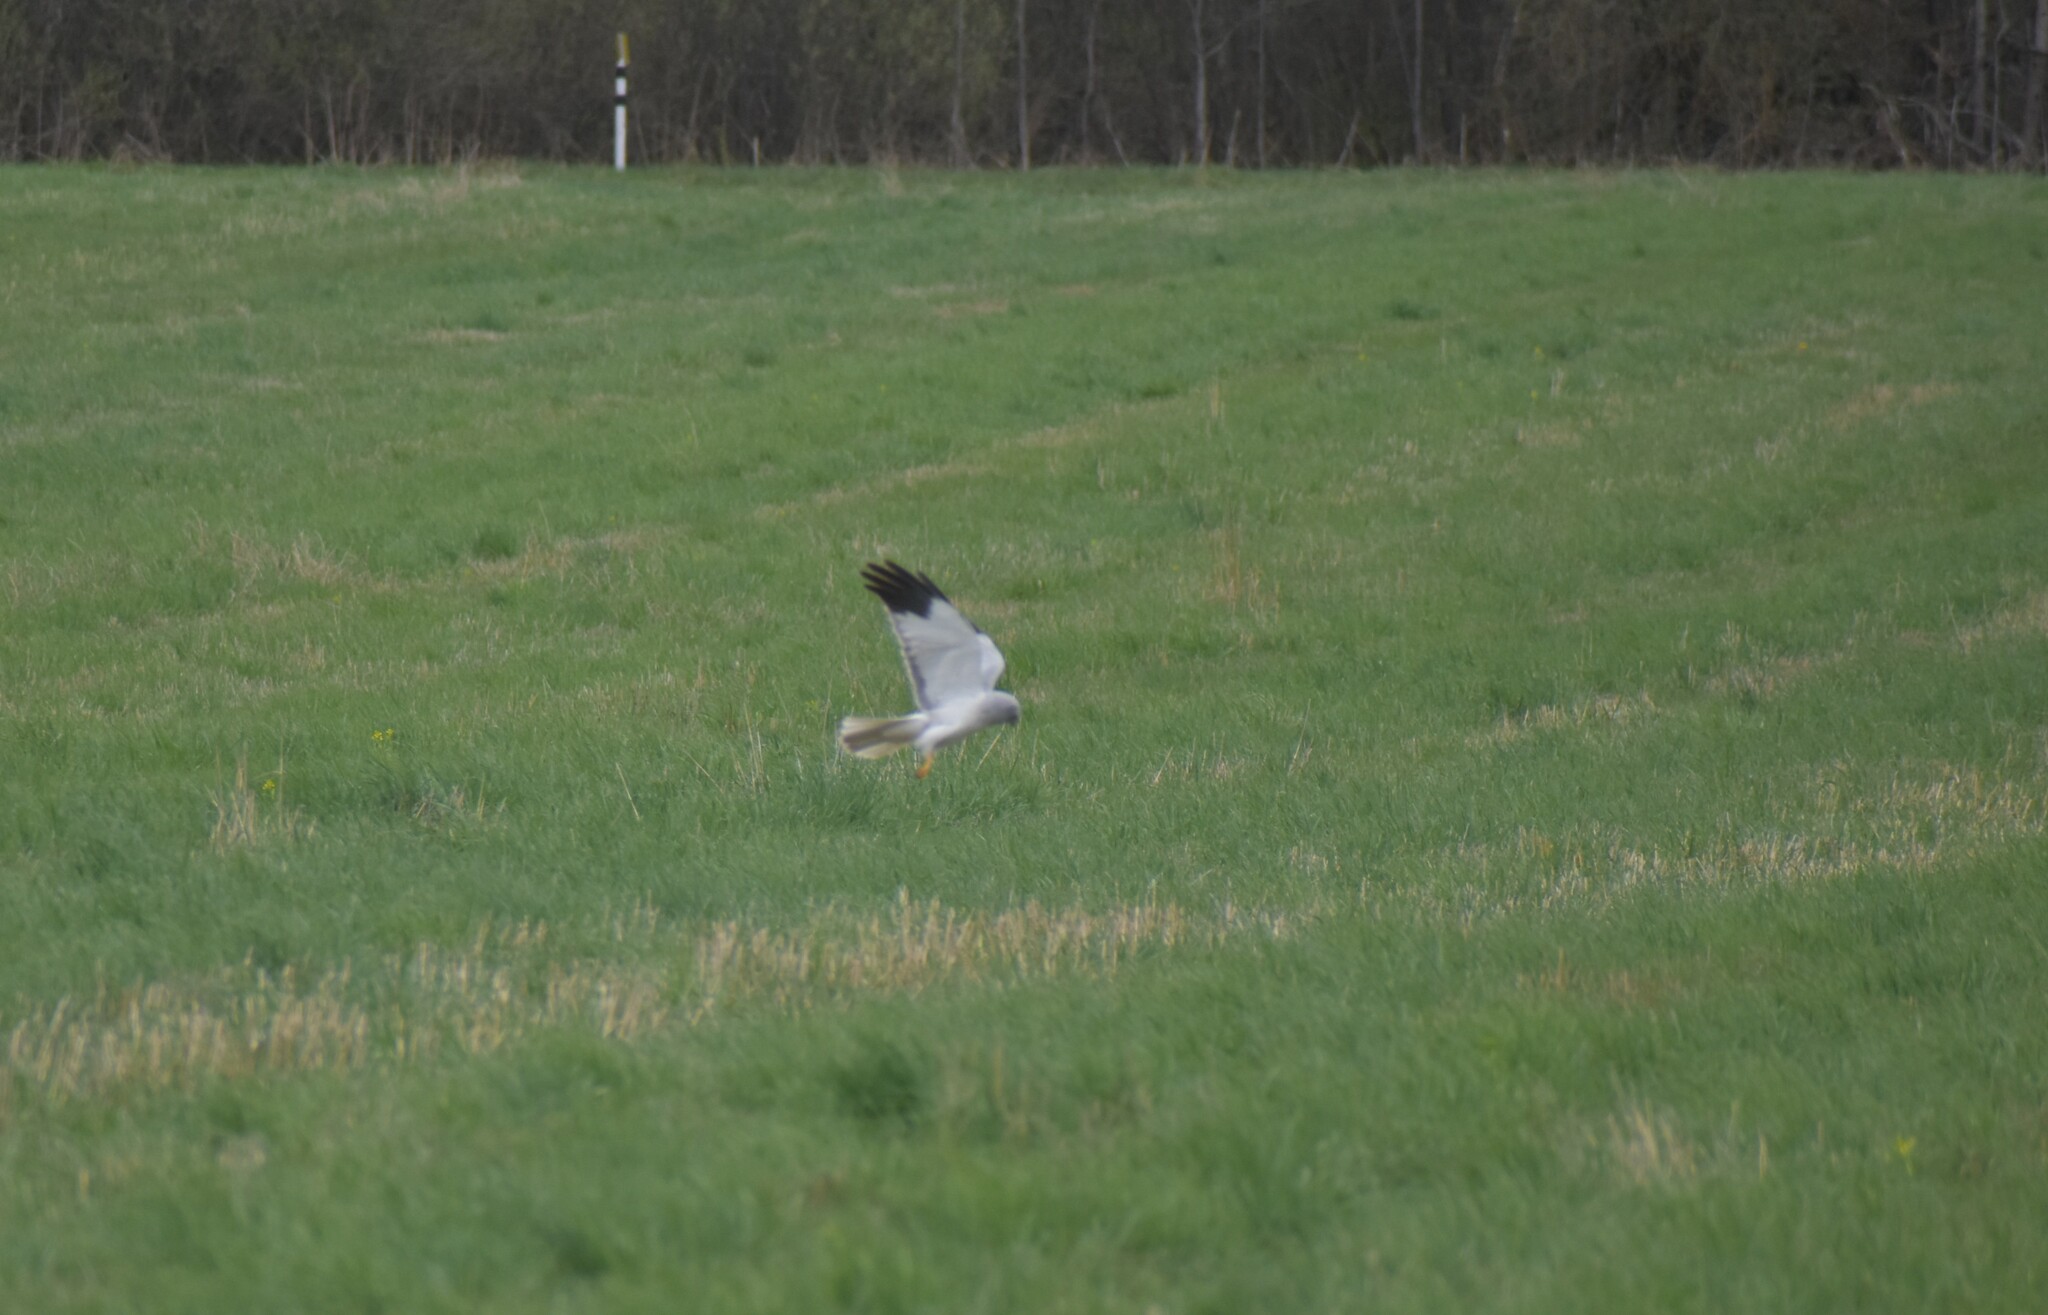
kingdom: Animalia
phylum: Chordata
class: Aves
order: Accipitriformes
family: Accipitridae
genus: Circus
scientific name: Circus cyaneus
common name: Hen harrier
